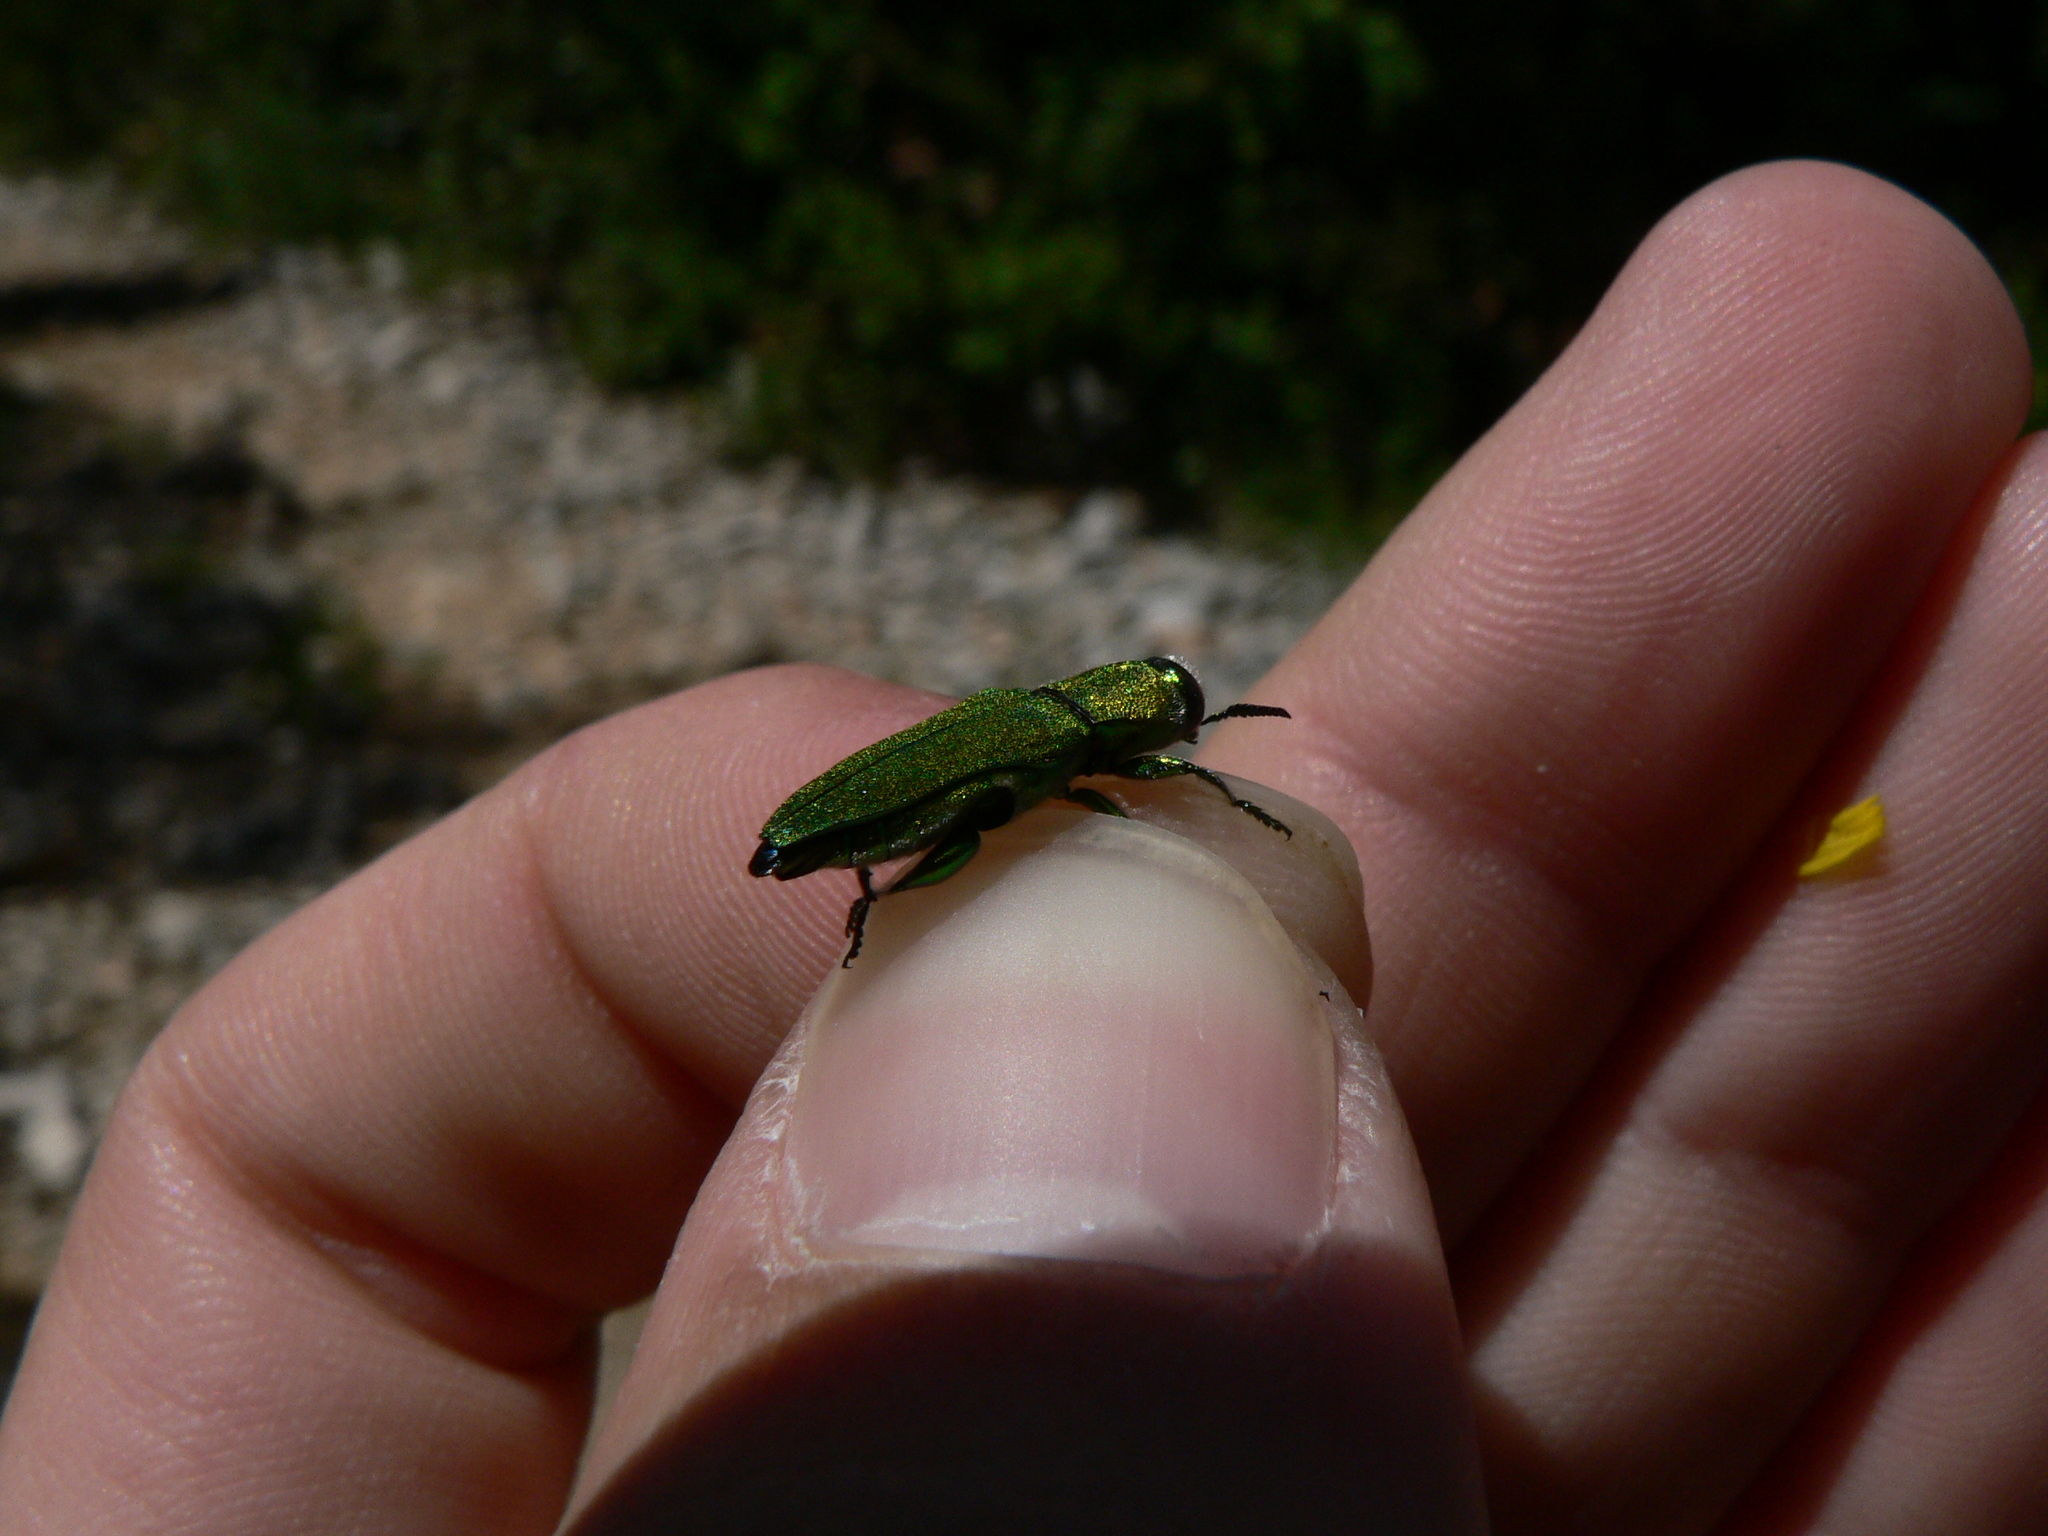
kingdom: Animalia
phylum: Arthropoda
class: Insecta
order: Coleoptera
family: Buprestidae
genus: Anthaxia
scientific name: Anthaxia hungarica
